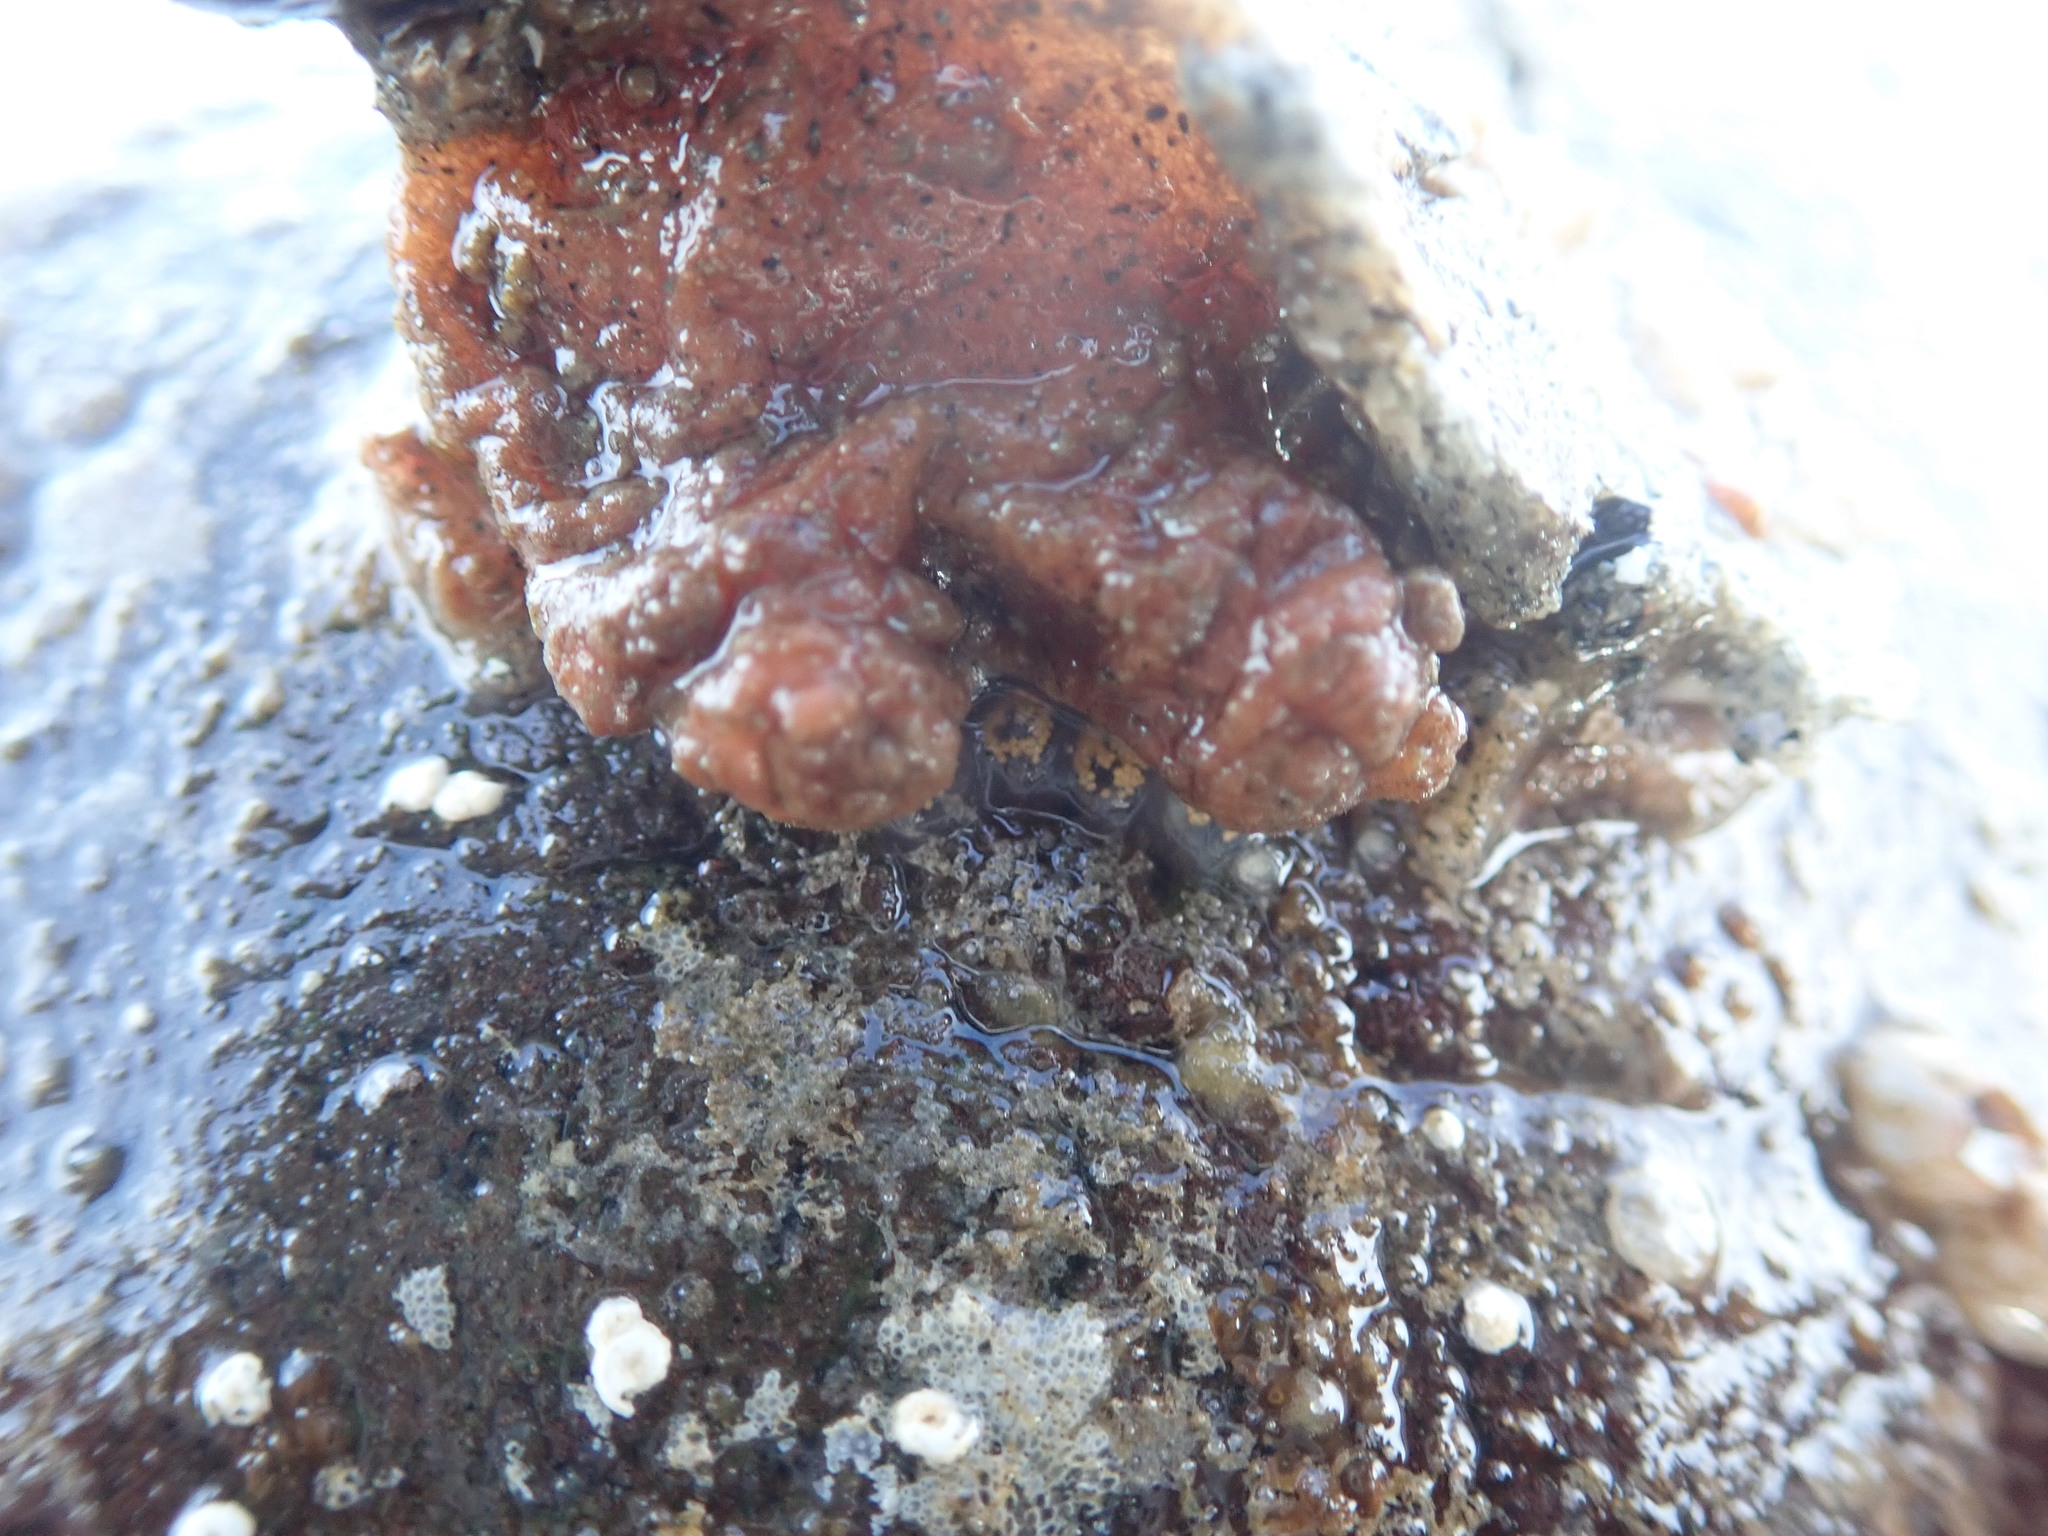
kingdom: Animalia
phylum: Chordata
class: Ascidiacea
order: Stolidobranchia
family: Pyuridae
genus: Pyura
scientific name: Pyura haustor
